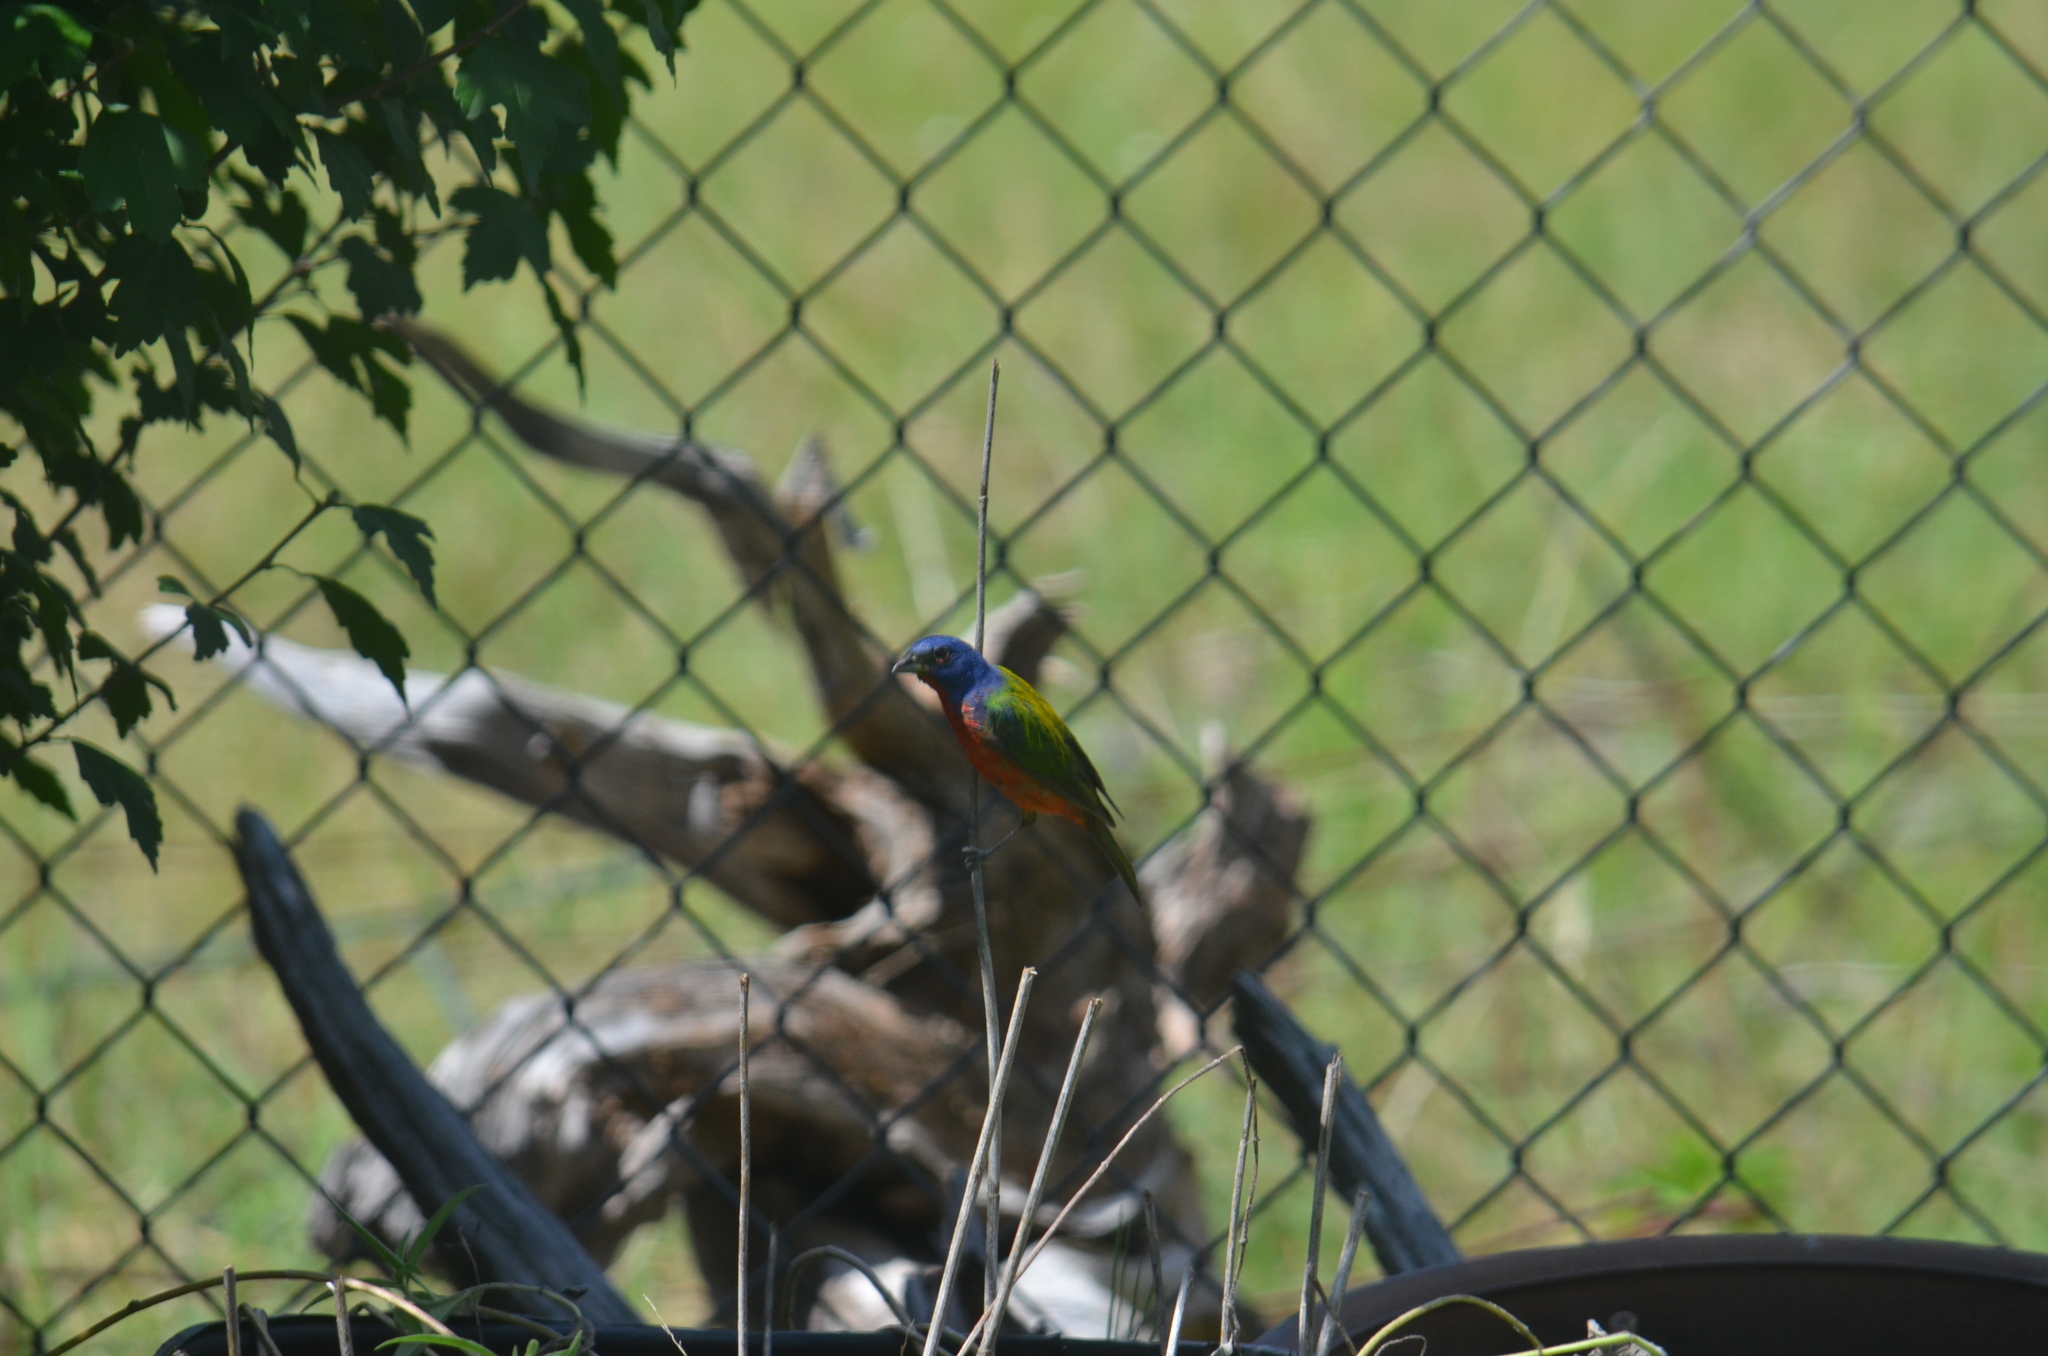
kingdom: Animalia
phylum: Chordata
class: Aves
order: Passeriformes
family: Cardinalidae
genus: Passerina
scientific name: Passerina ciris
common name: Painted bunting
